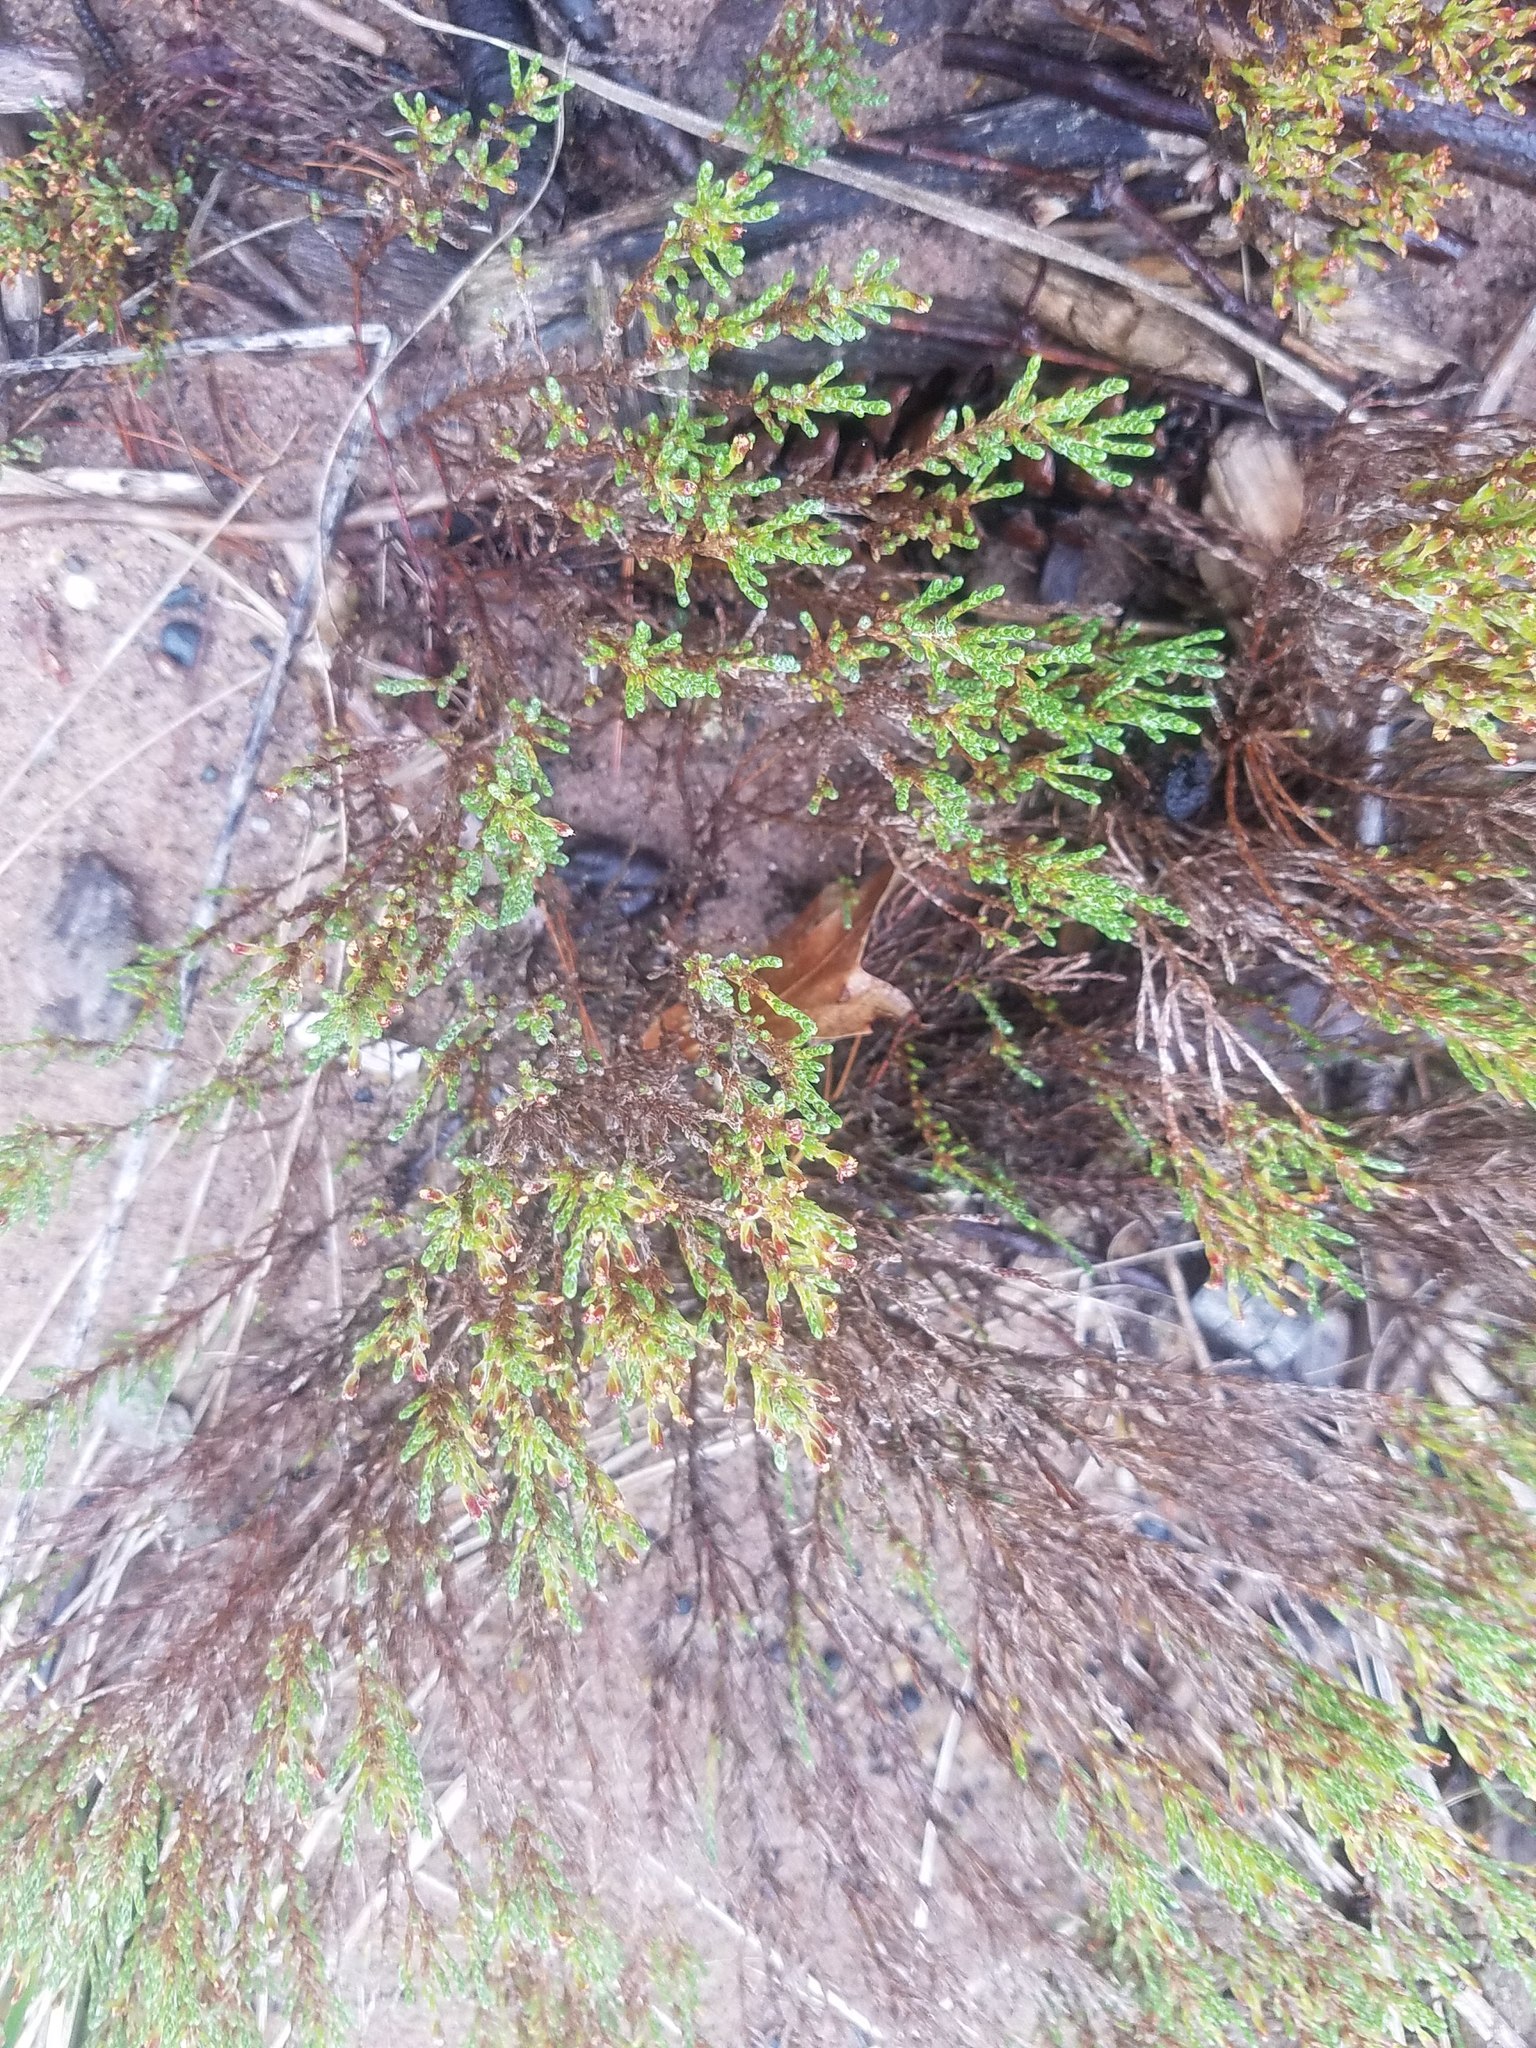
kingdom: Plantae
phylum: Tracheophyta
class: Magnoliopsida
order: Malvales
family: Cistaceae
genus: Hudsonia
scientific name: Hudsonia tomentosa
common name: Beach-heath
